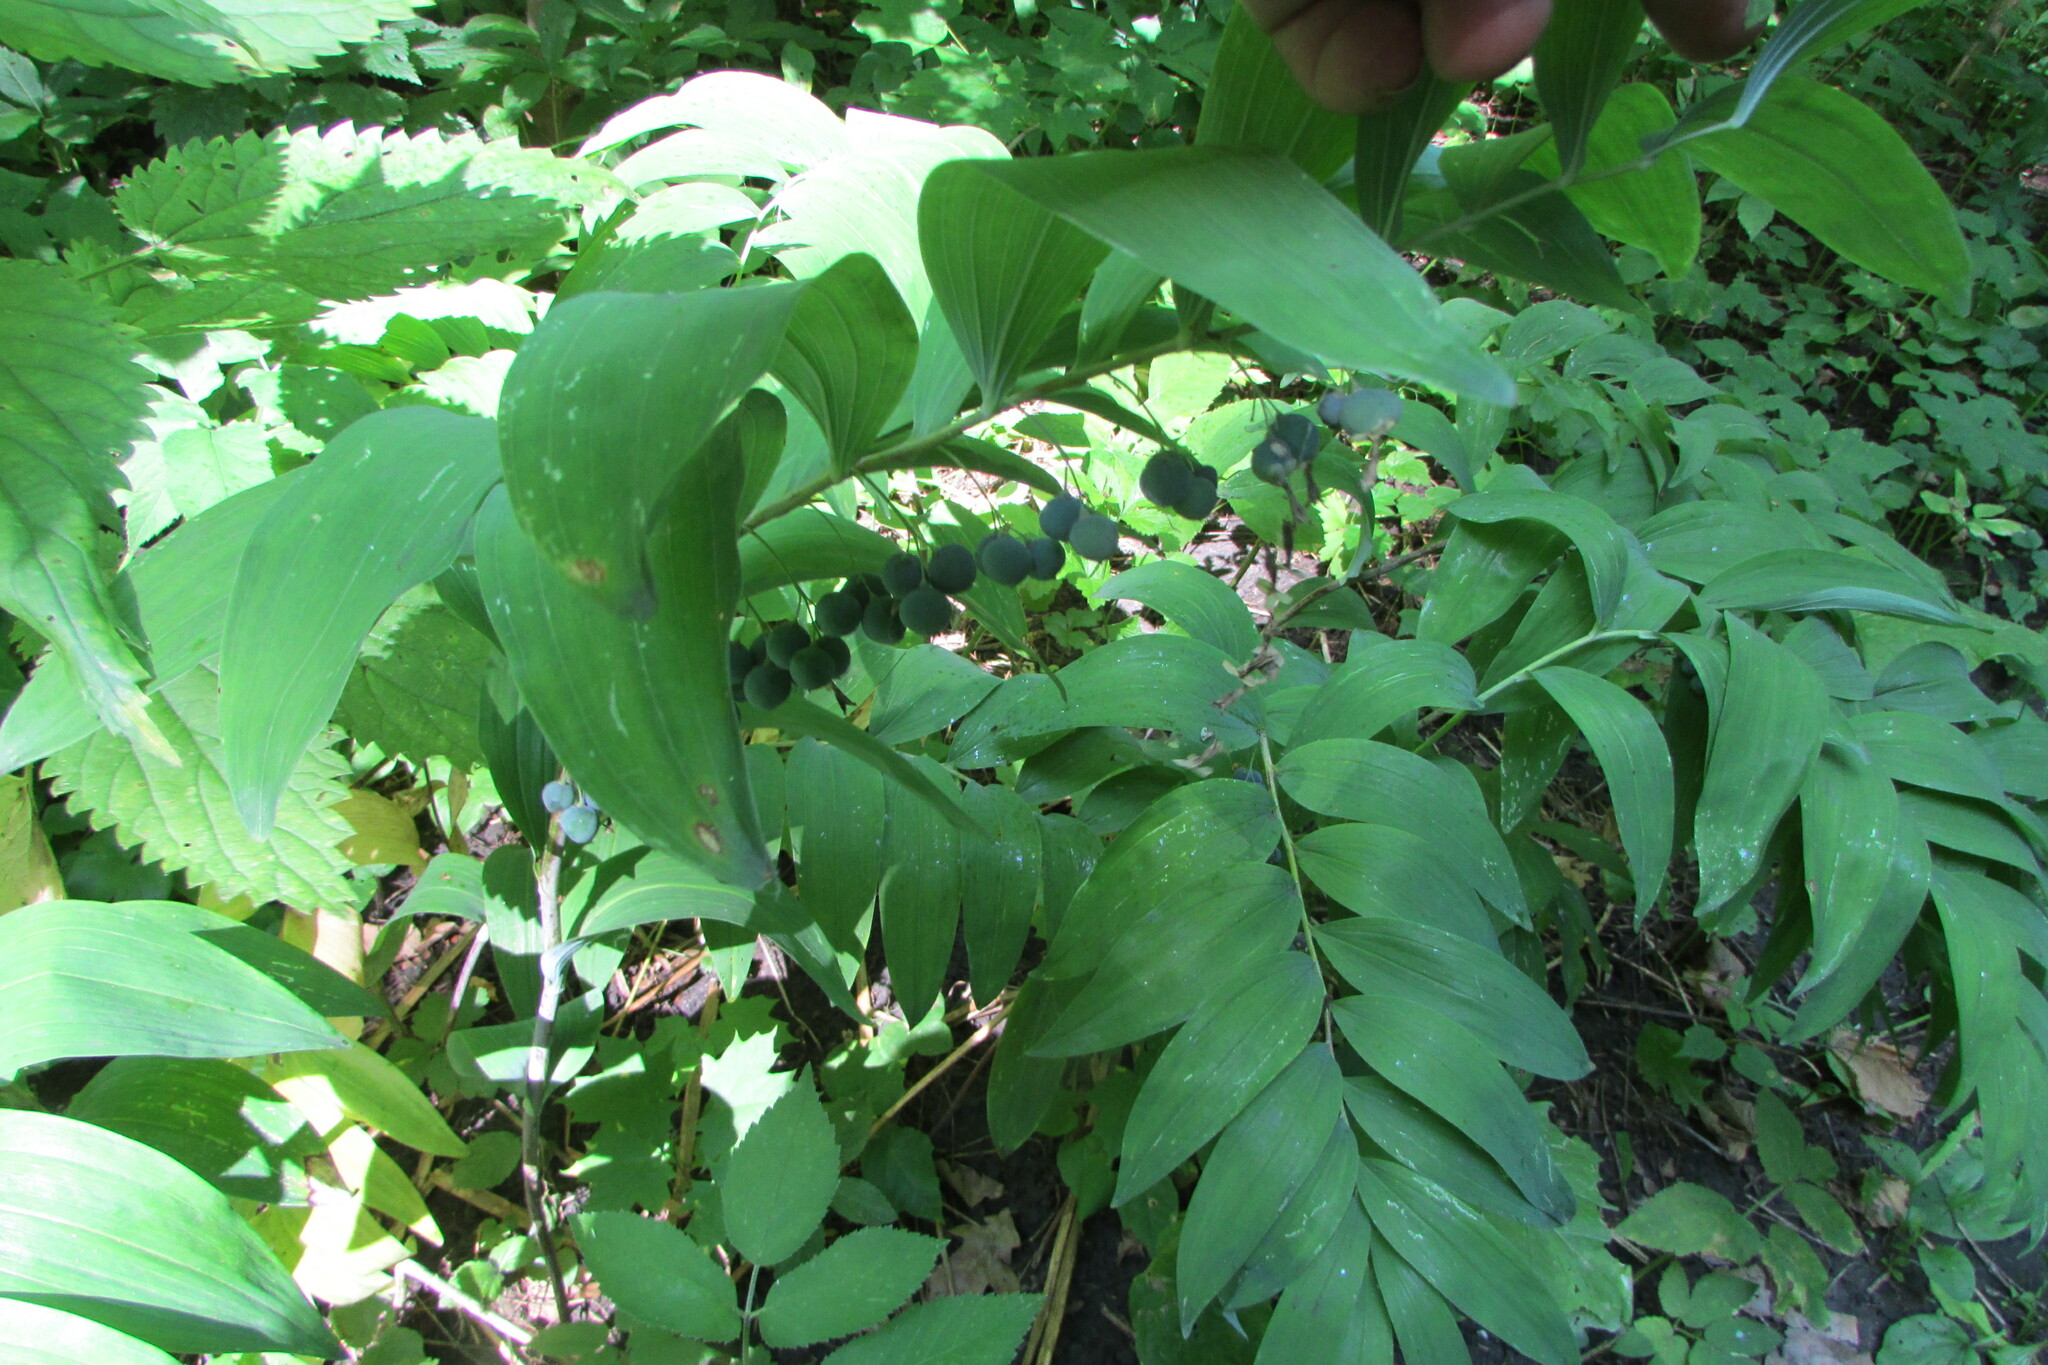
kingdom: Plantae
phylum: Tracheophyta
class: Liliopsida
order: Asparagales
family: Asparagaceae
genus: Polygonatum
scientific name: Polygonatum multiflorum
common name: Solomon's-seal
